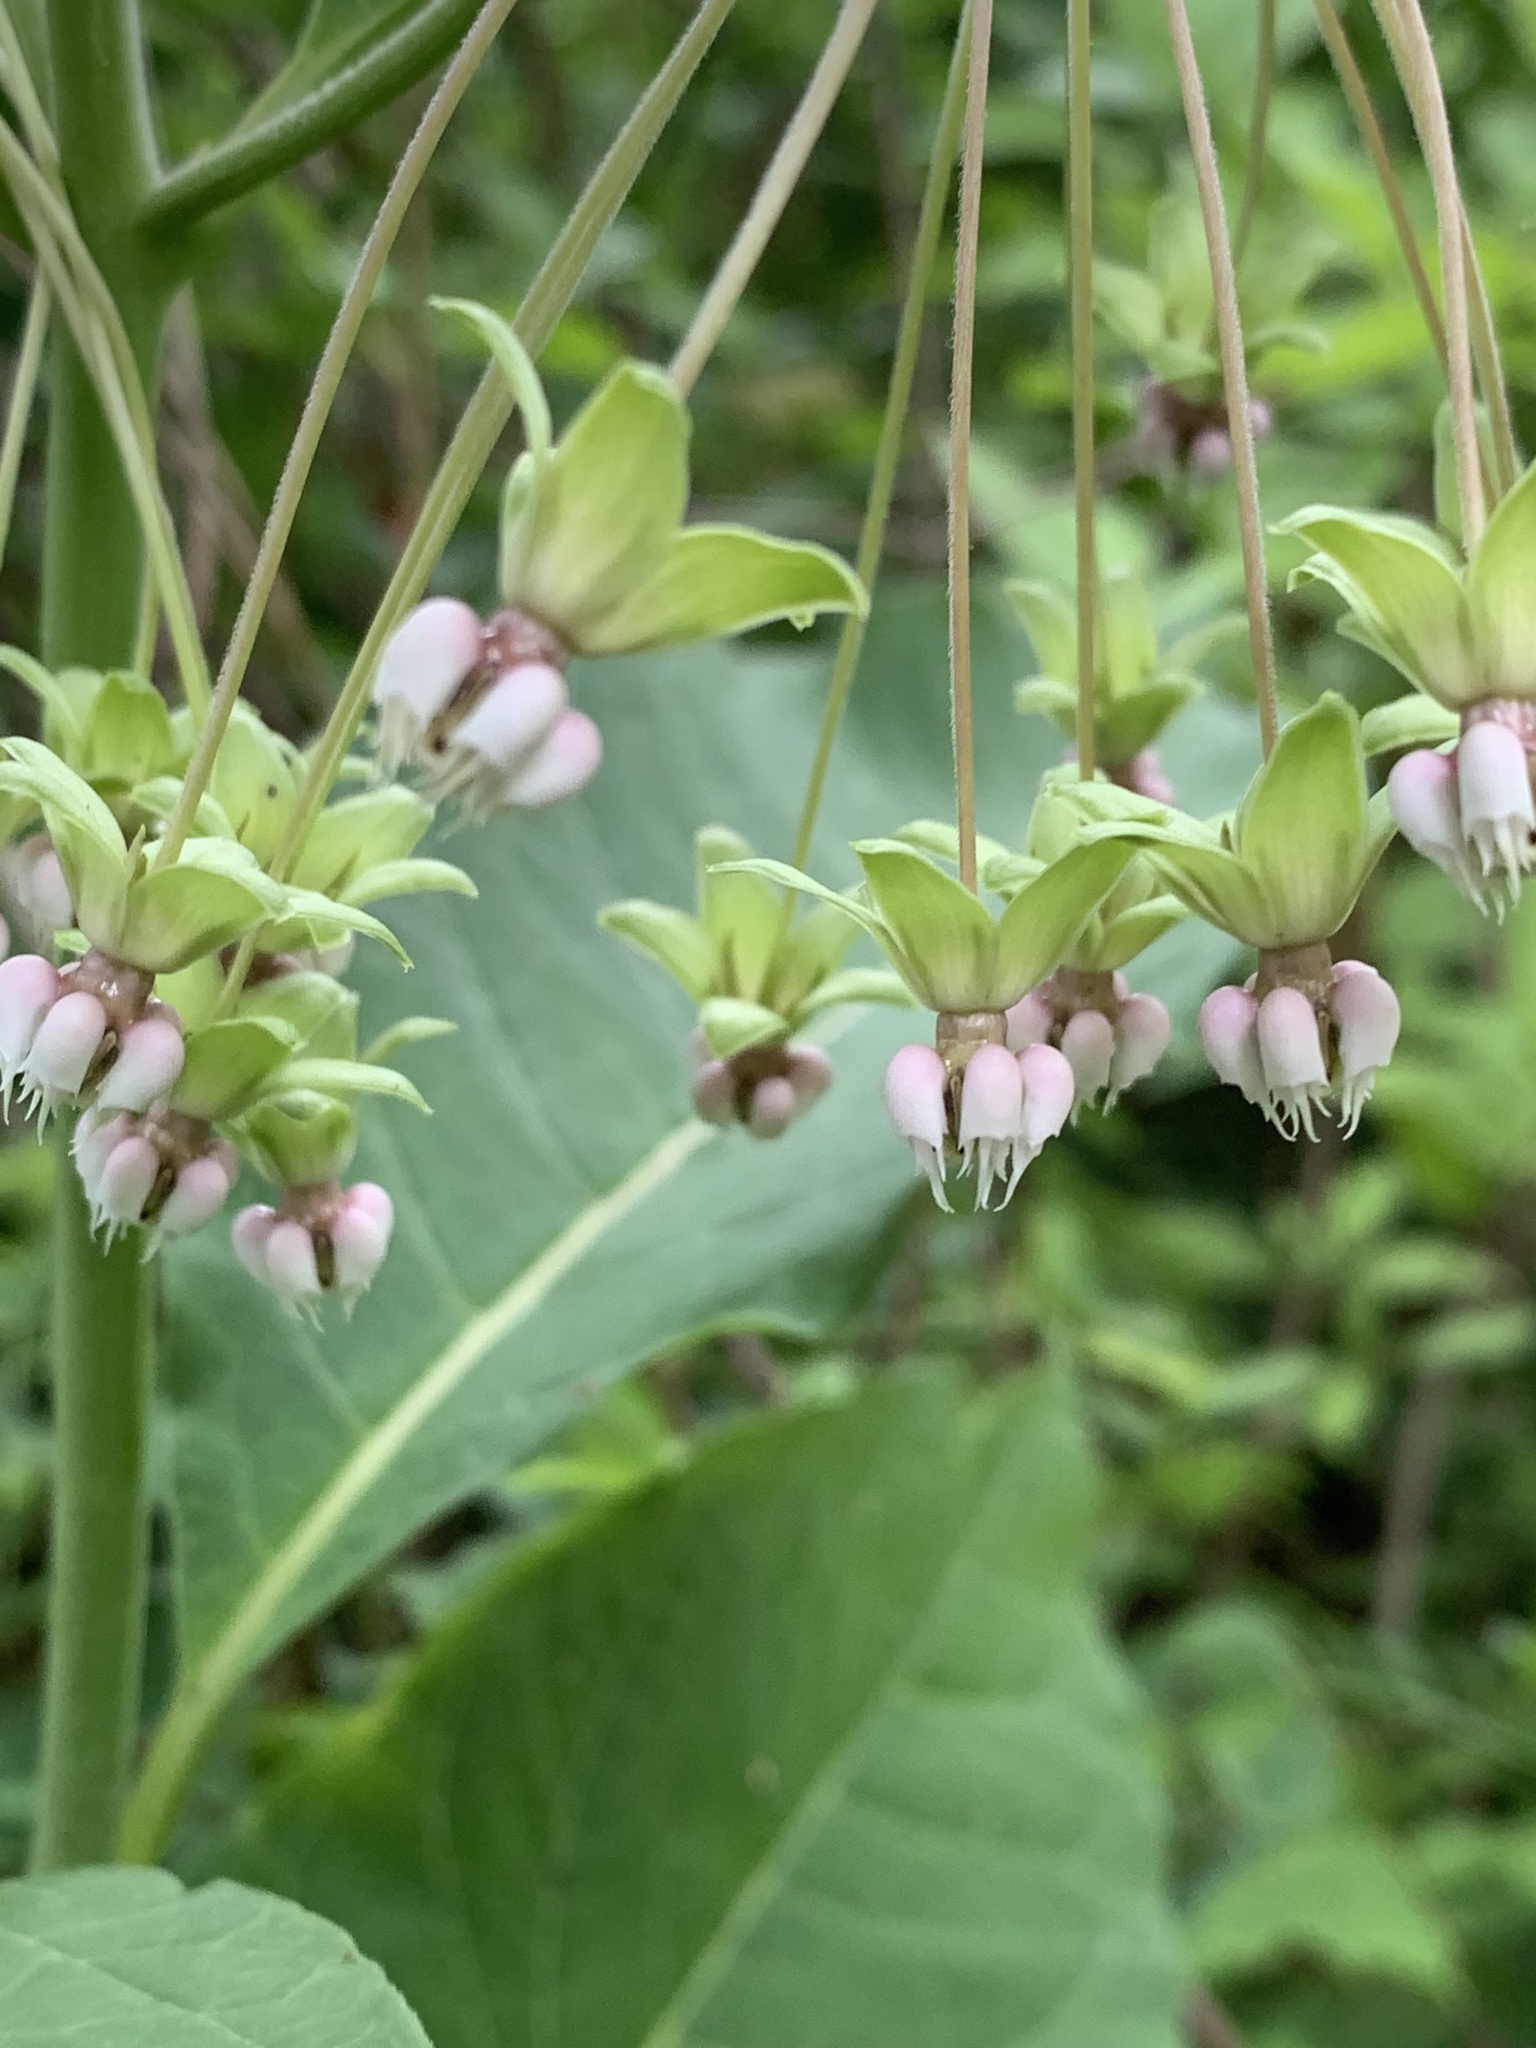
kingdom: Plantae
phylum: Tracheophyta
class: Magnoliopsida
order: Gentianales
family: Apocynaceae
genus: Asclepias
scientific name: Asclepias exaltata
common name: Poke milkweed
